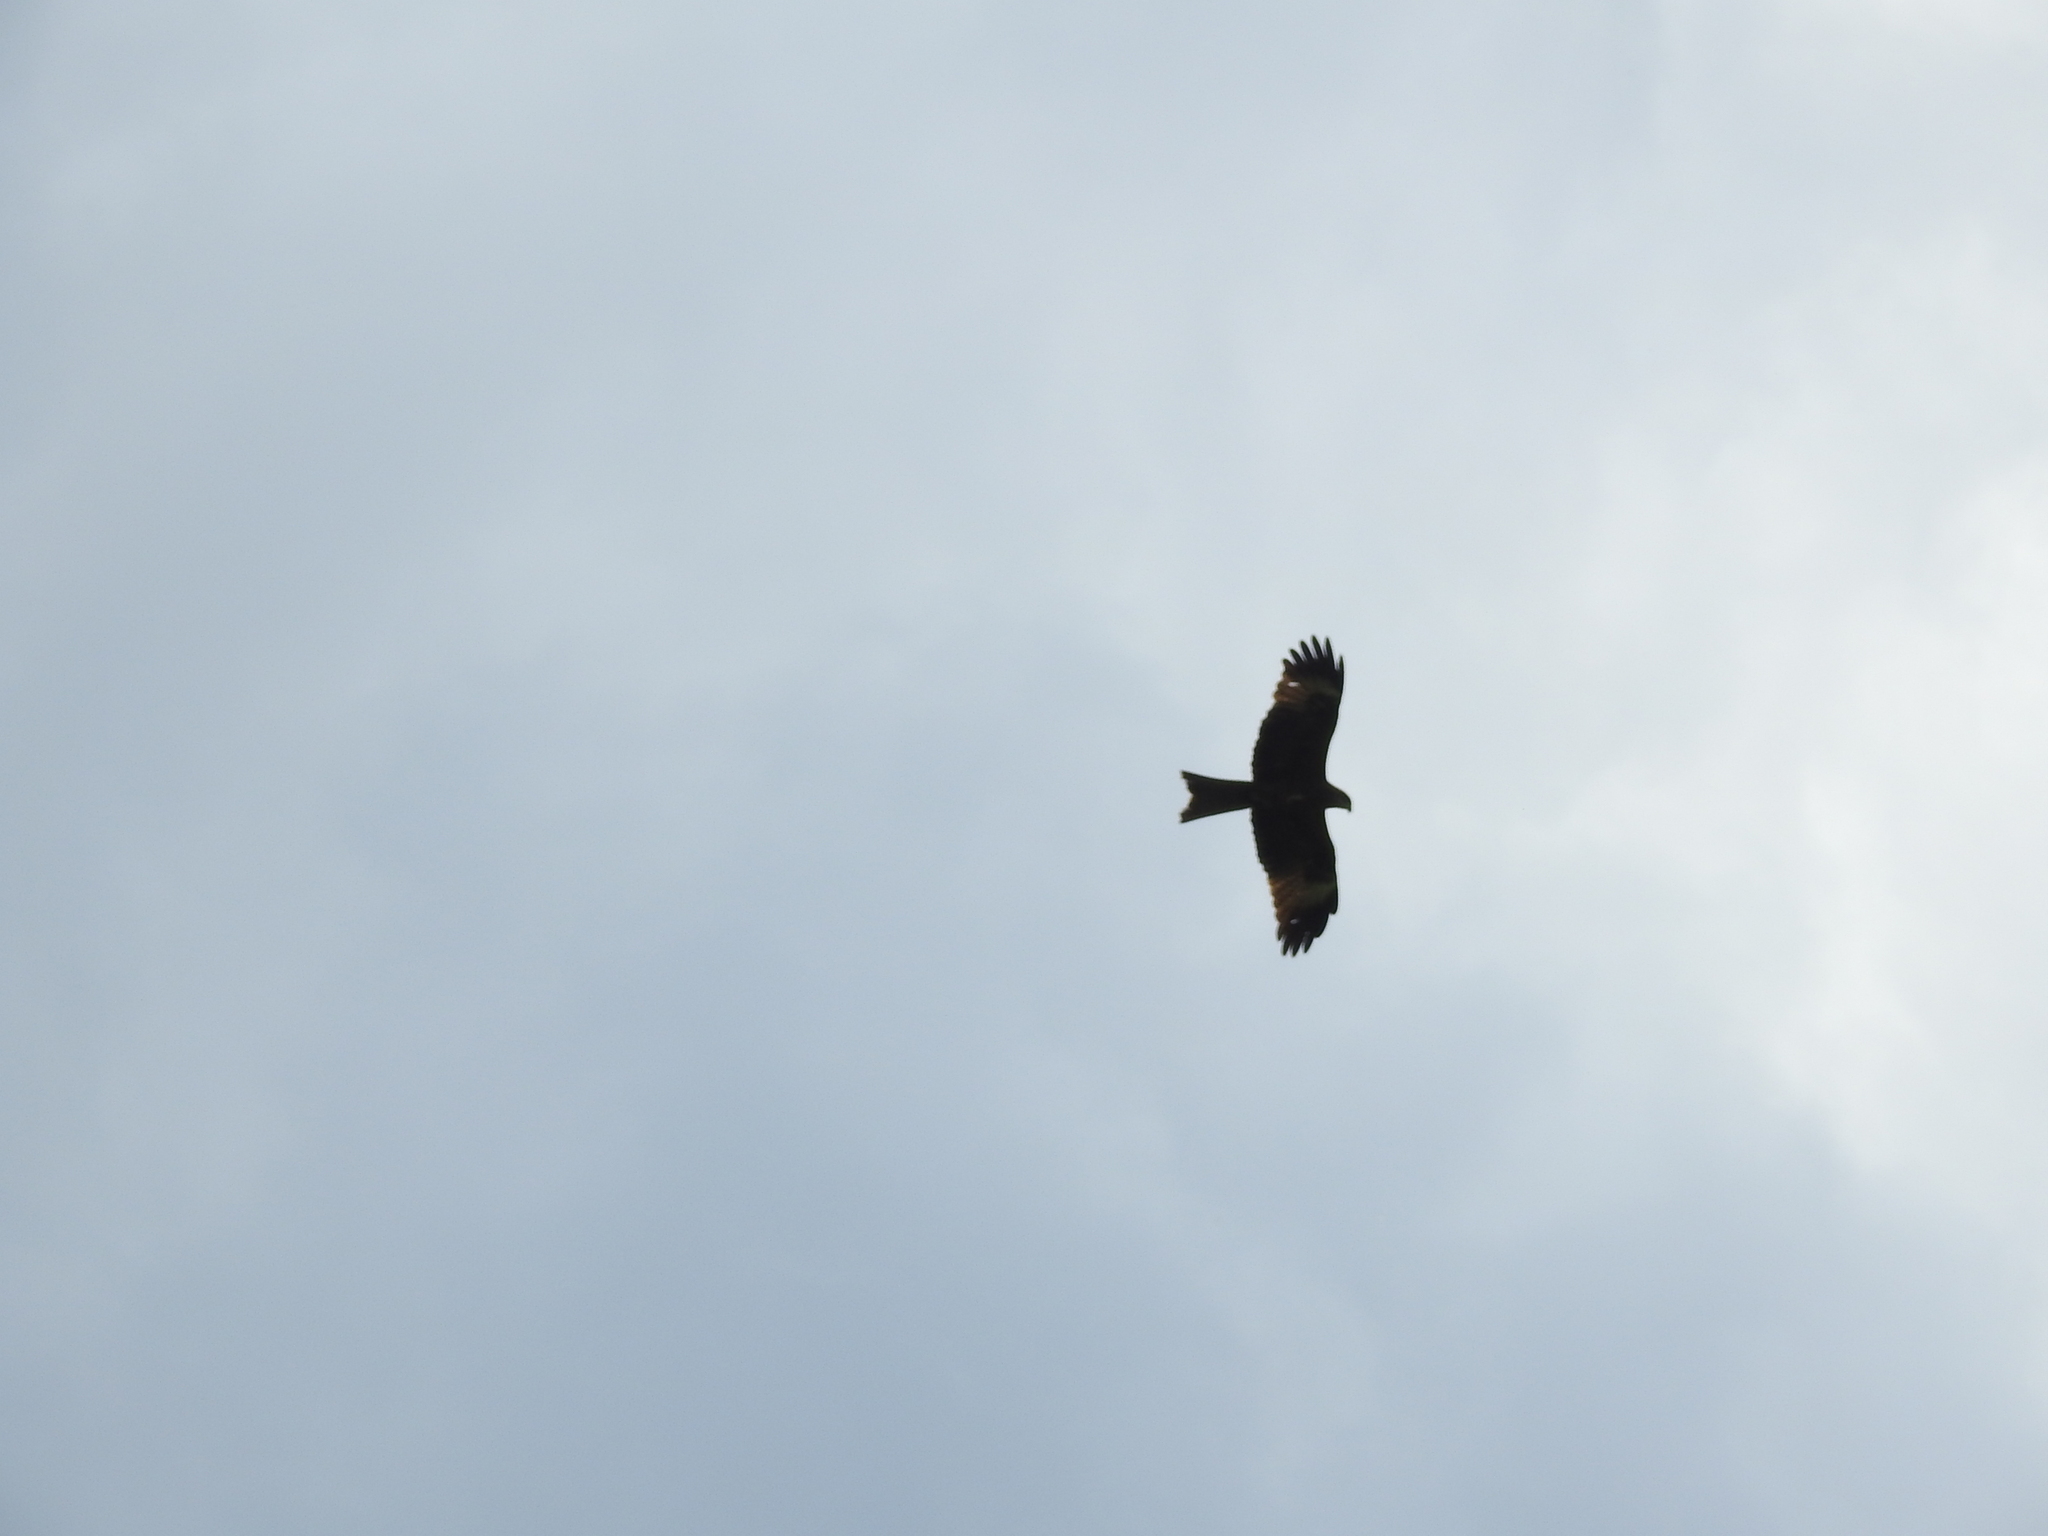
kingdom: Animalia
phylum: Chordata
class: Aves
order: Accipitriformes
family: Accipitridae
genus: Milvus
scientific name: Milvus migrans
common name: Black kite
